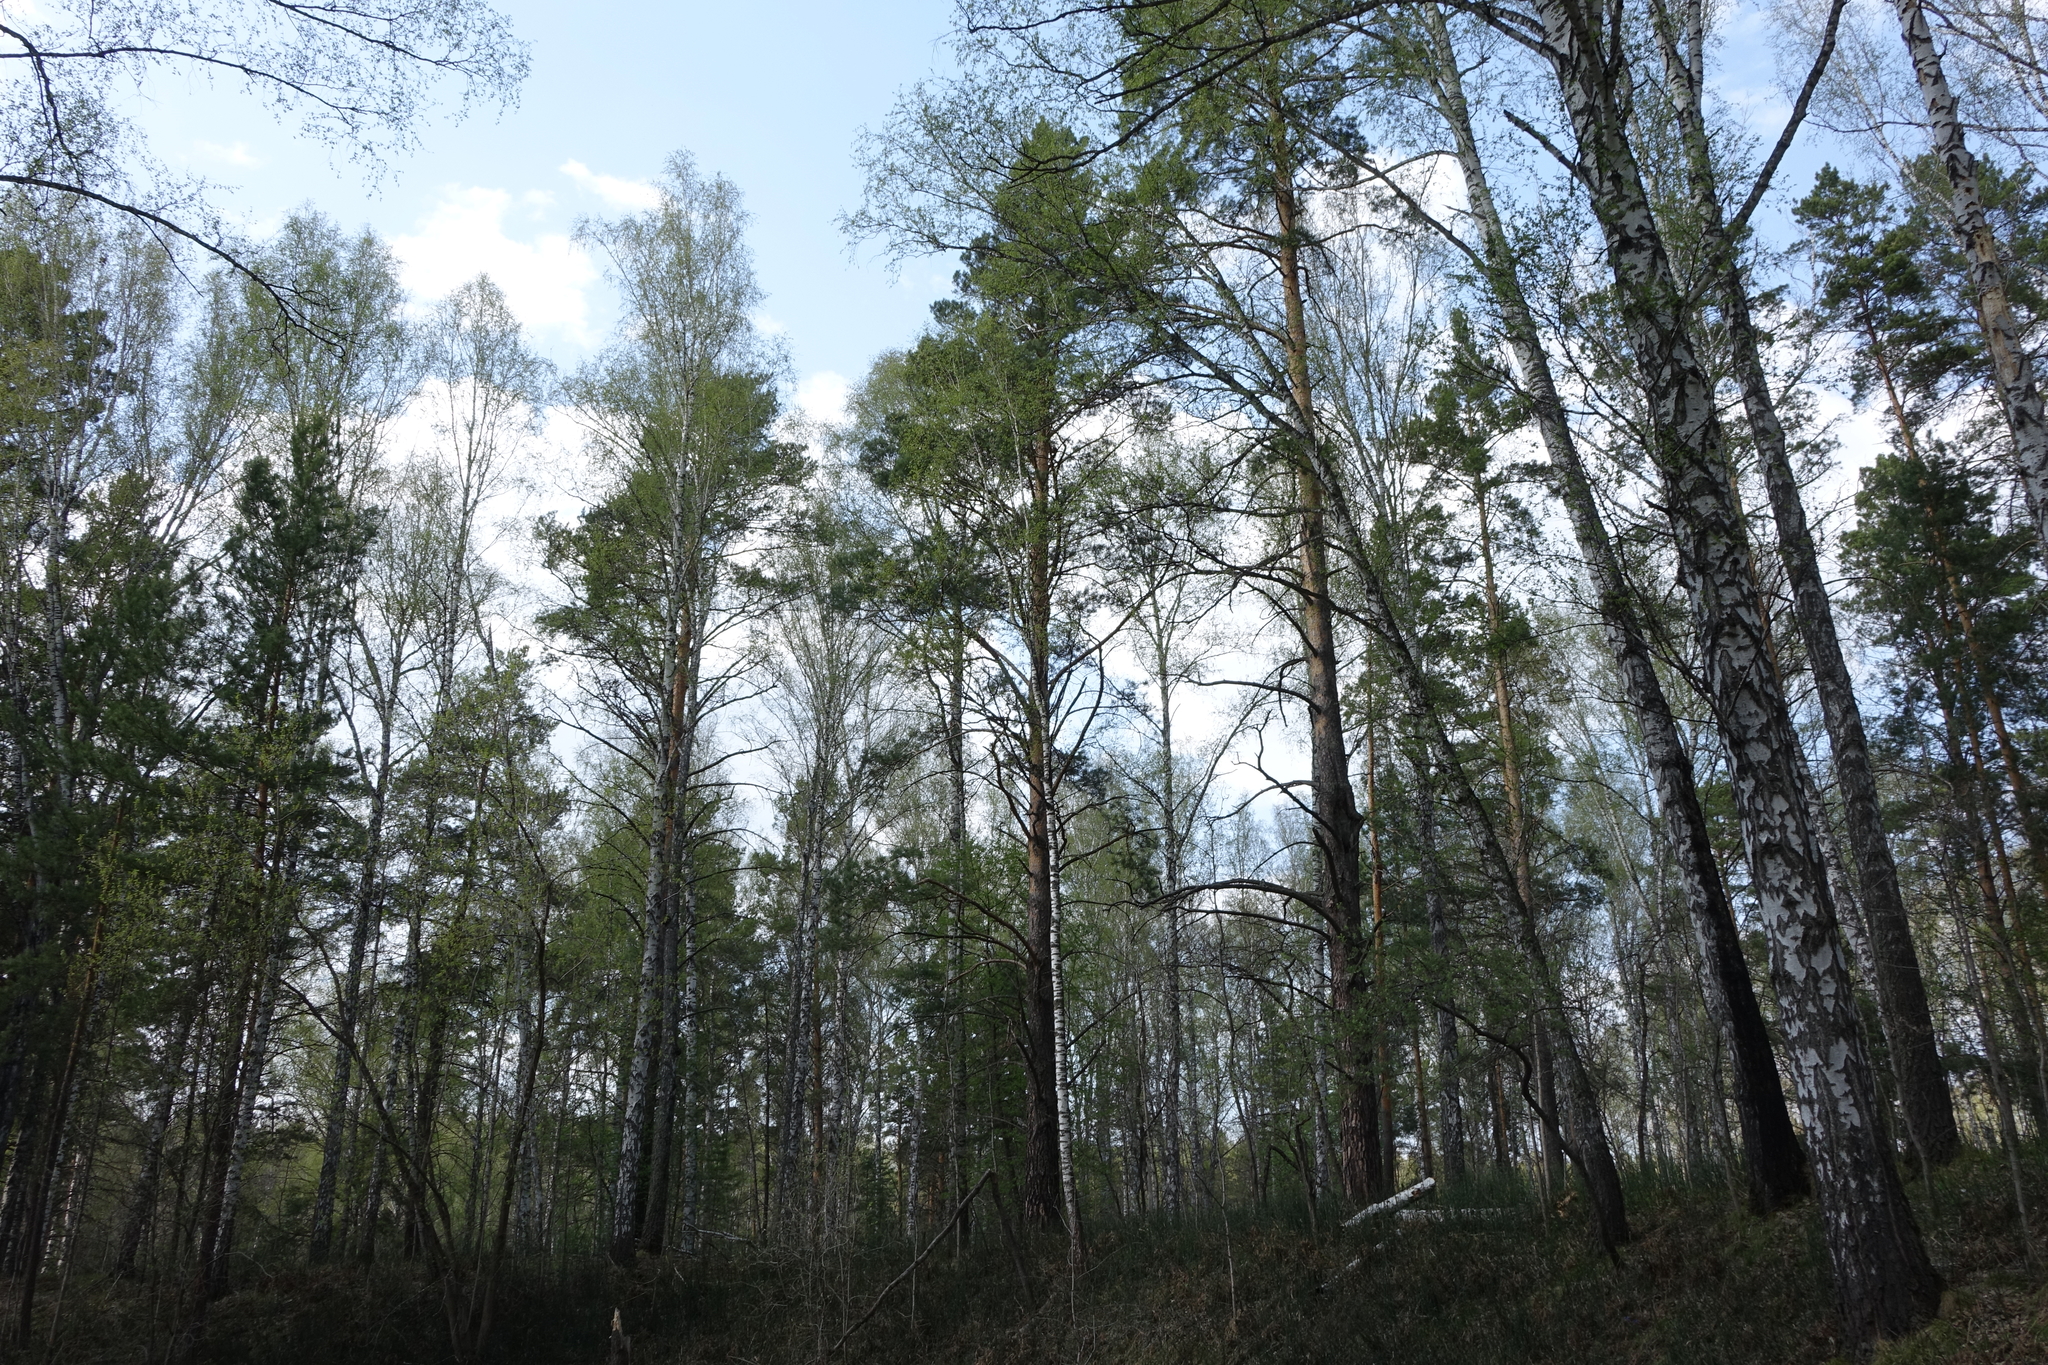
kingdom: Plantae
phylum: Tracheophyta
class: Pinopsida
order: Pinales
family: Pinaceae
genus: Pinus
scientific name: Pinus sylvestris
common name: Scots pine
